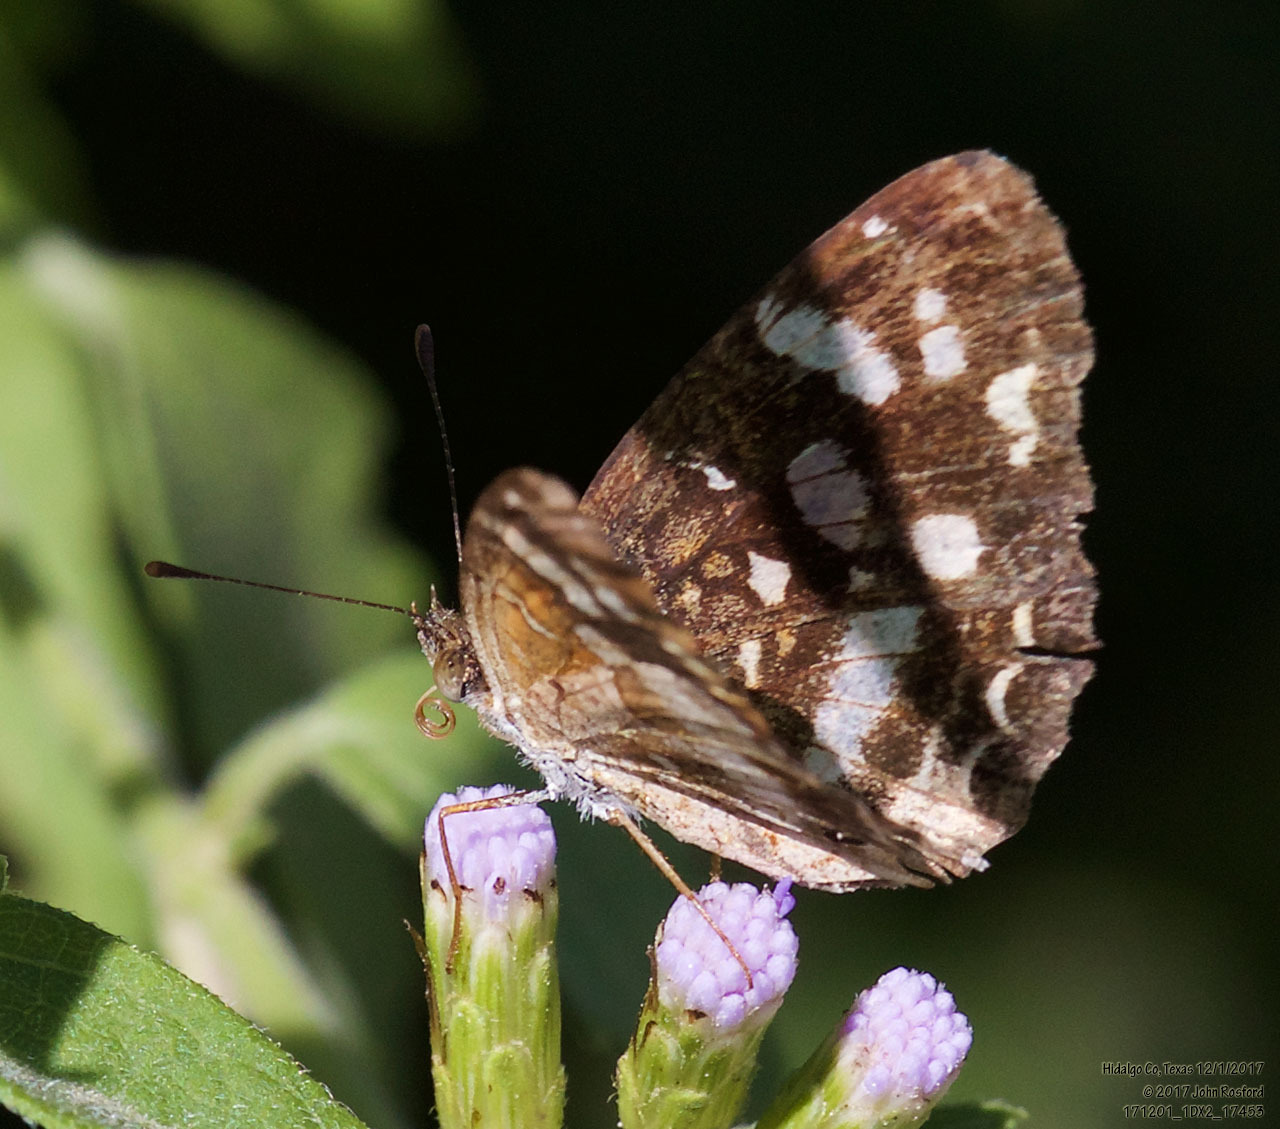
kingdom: Animalia
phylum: Arthropoda
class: Insecta
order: Lepidoptera
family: Nymphalidae
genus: Anthanassa
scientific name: Anthanassa tulcis
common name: Pale-banded crescent
